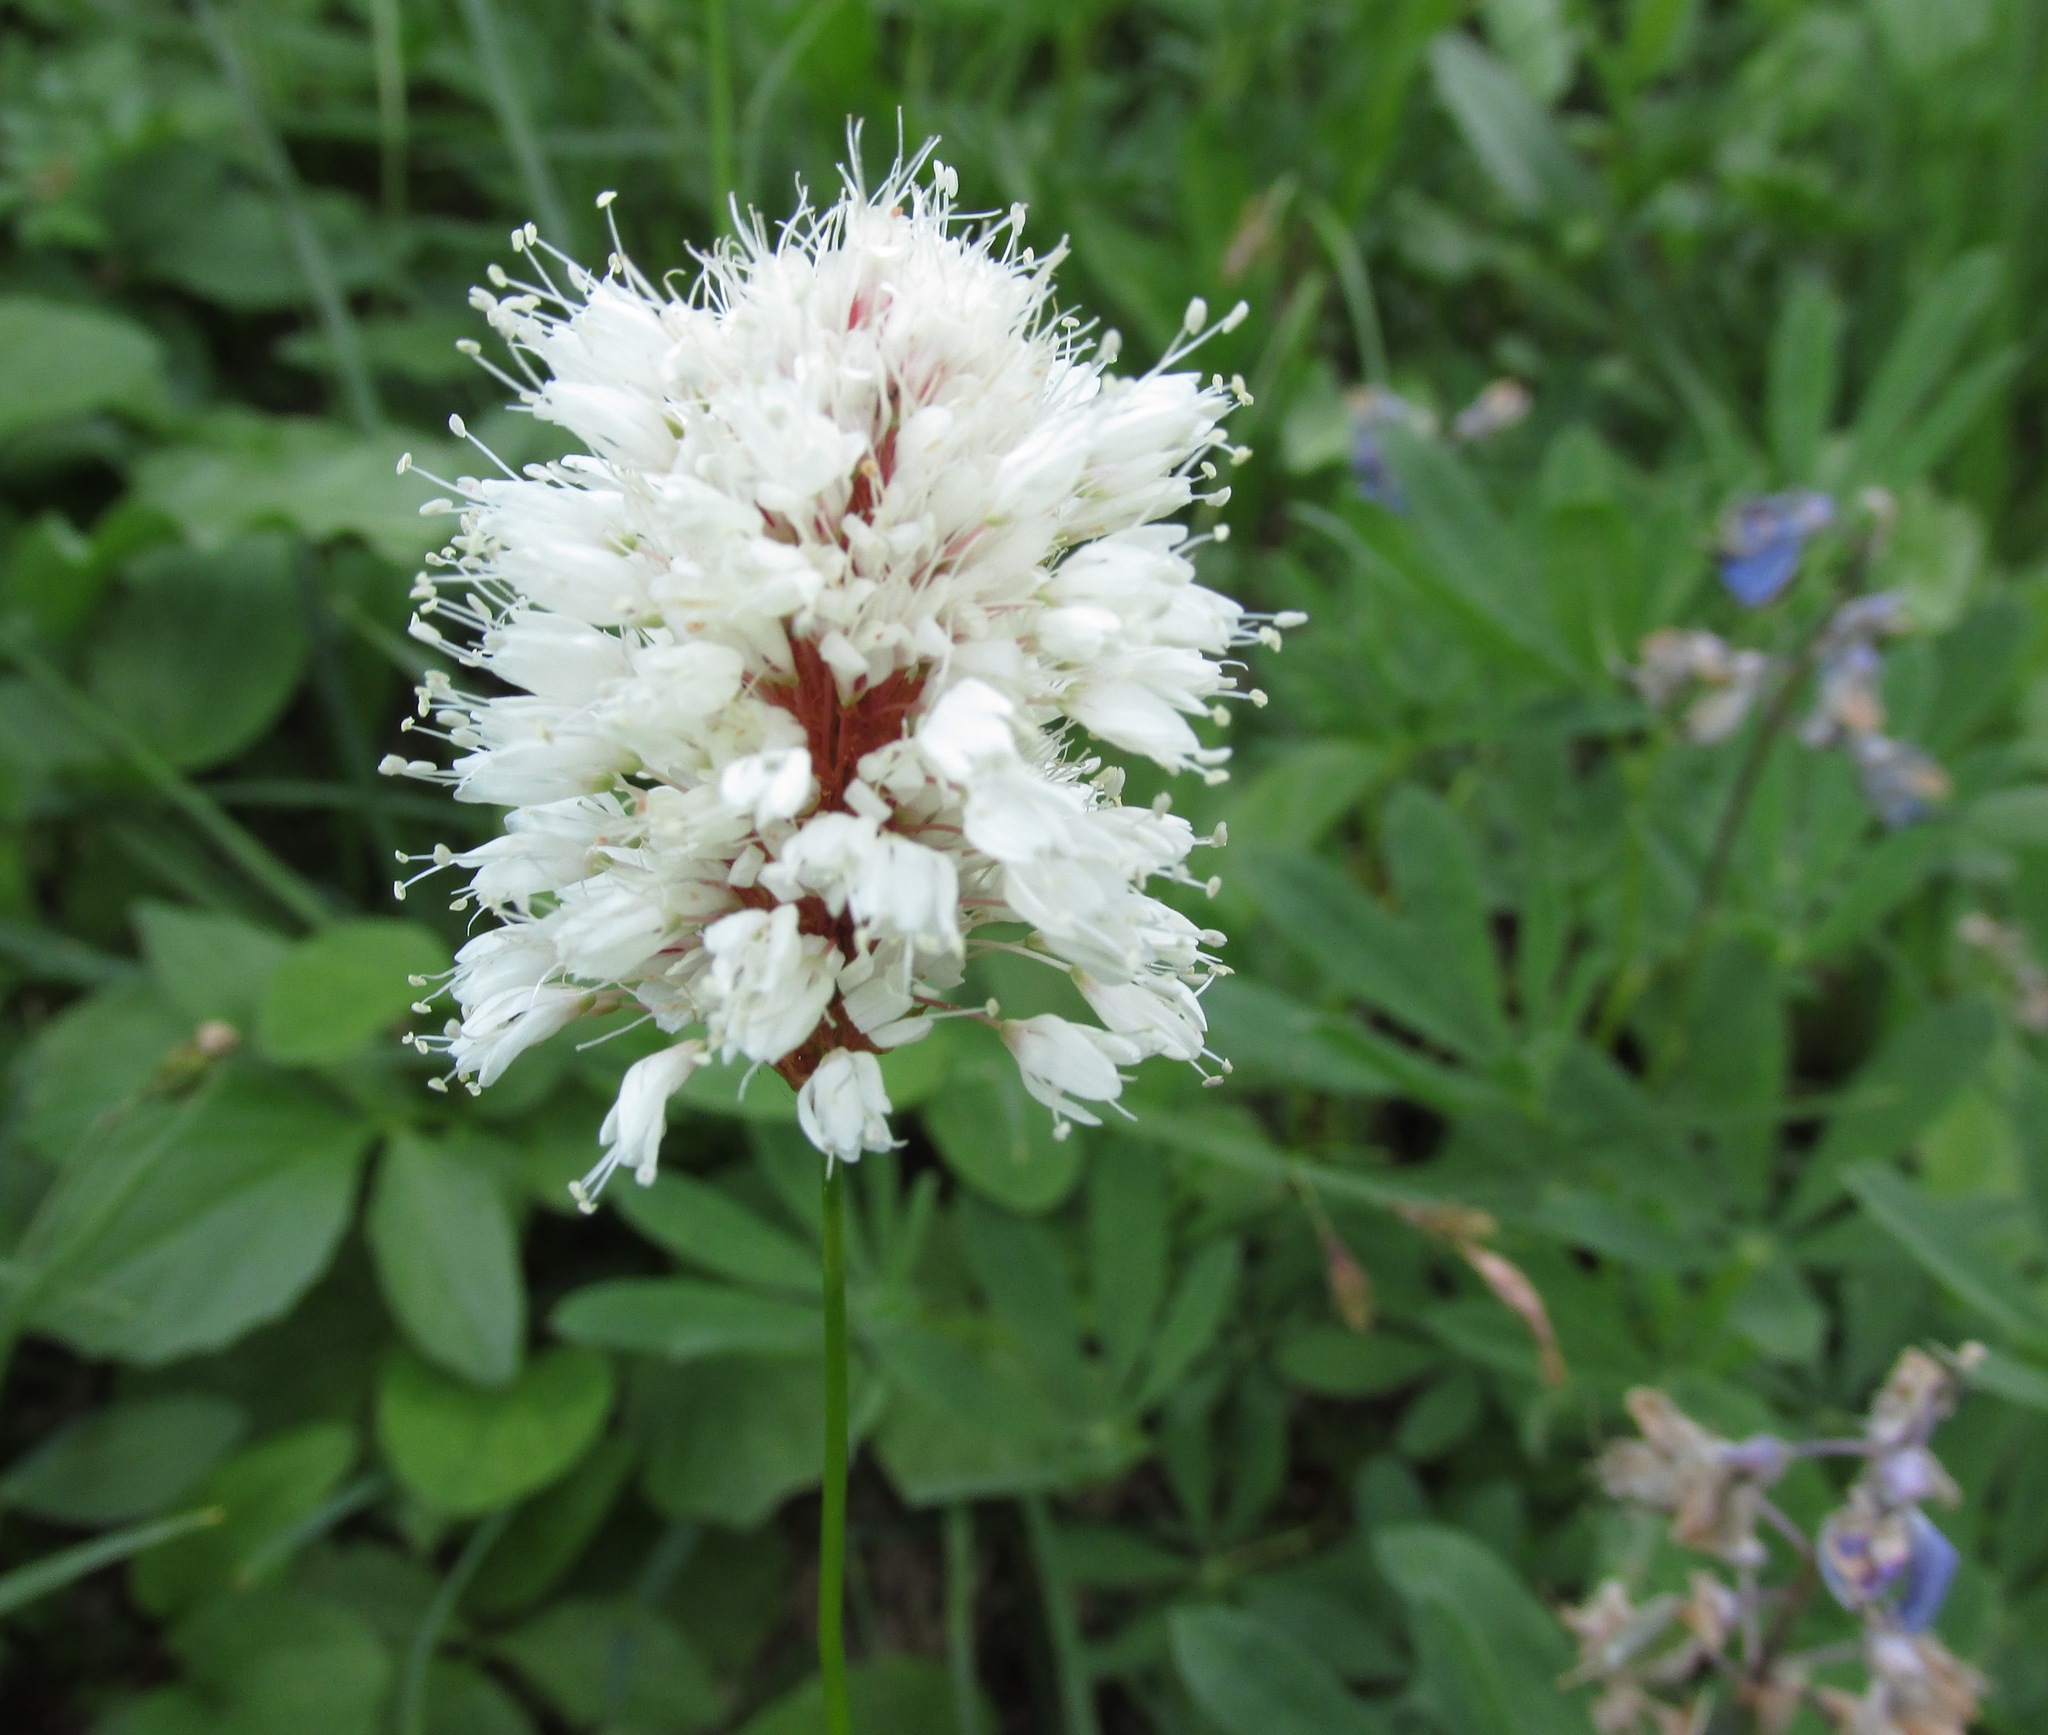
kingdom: Plantae
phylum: Tracheophyta
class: Magnoliopsida
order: Caryophyllales
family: Polygonaceae
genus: Bistorta
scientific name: Bistorta bistortoides
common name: American bistort
